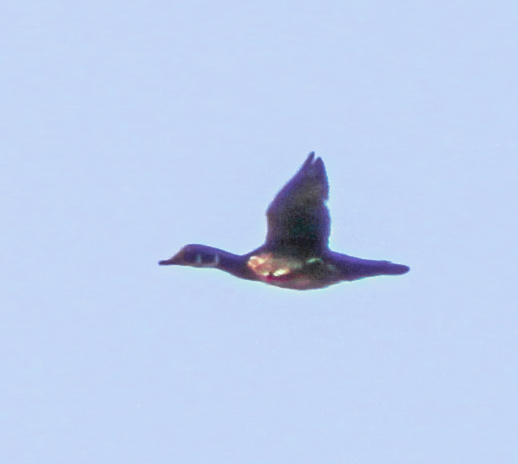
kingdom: Animalia
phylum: Chordata
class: Aves
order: Anseriformes
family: Anatidae
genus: Aix
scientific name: Aix sponsa
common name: Wood duck
